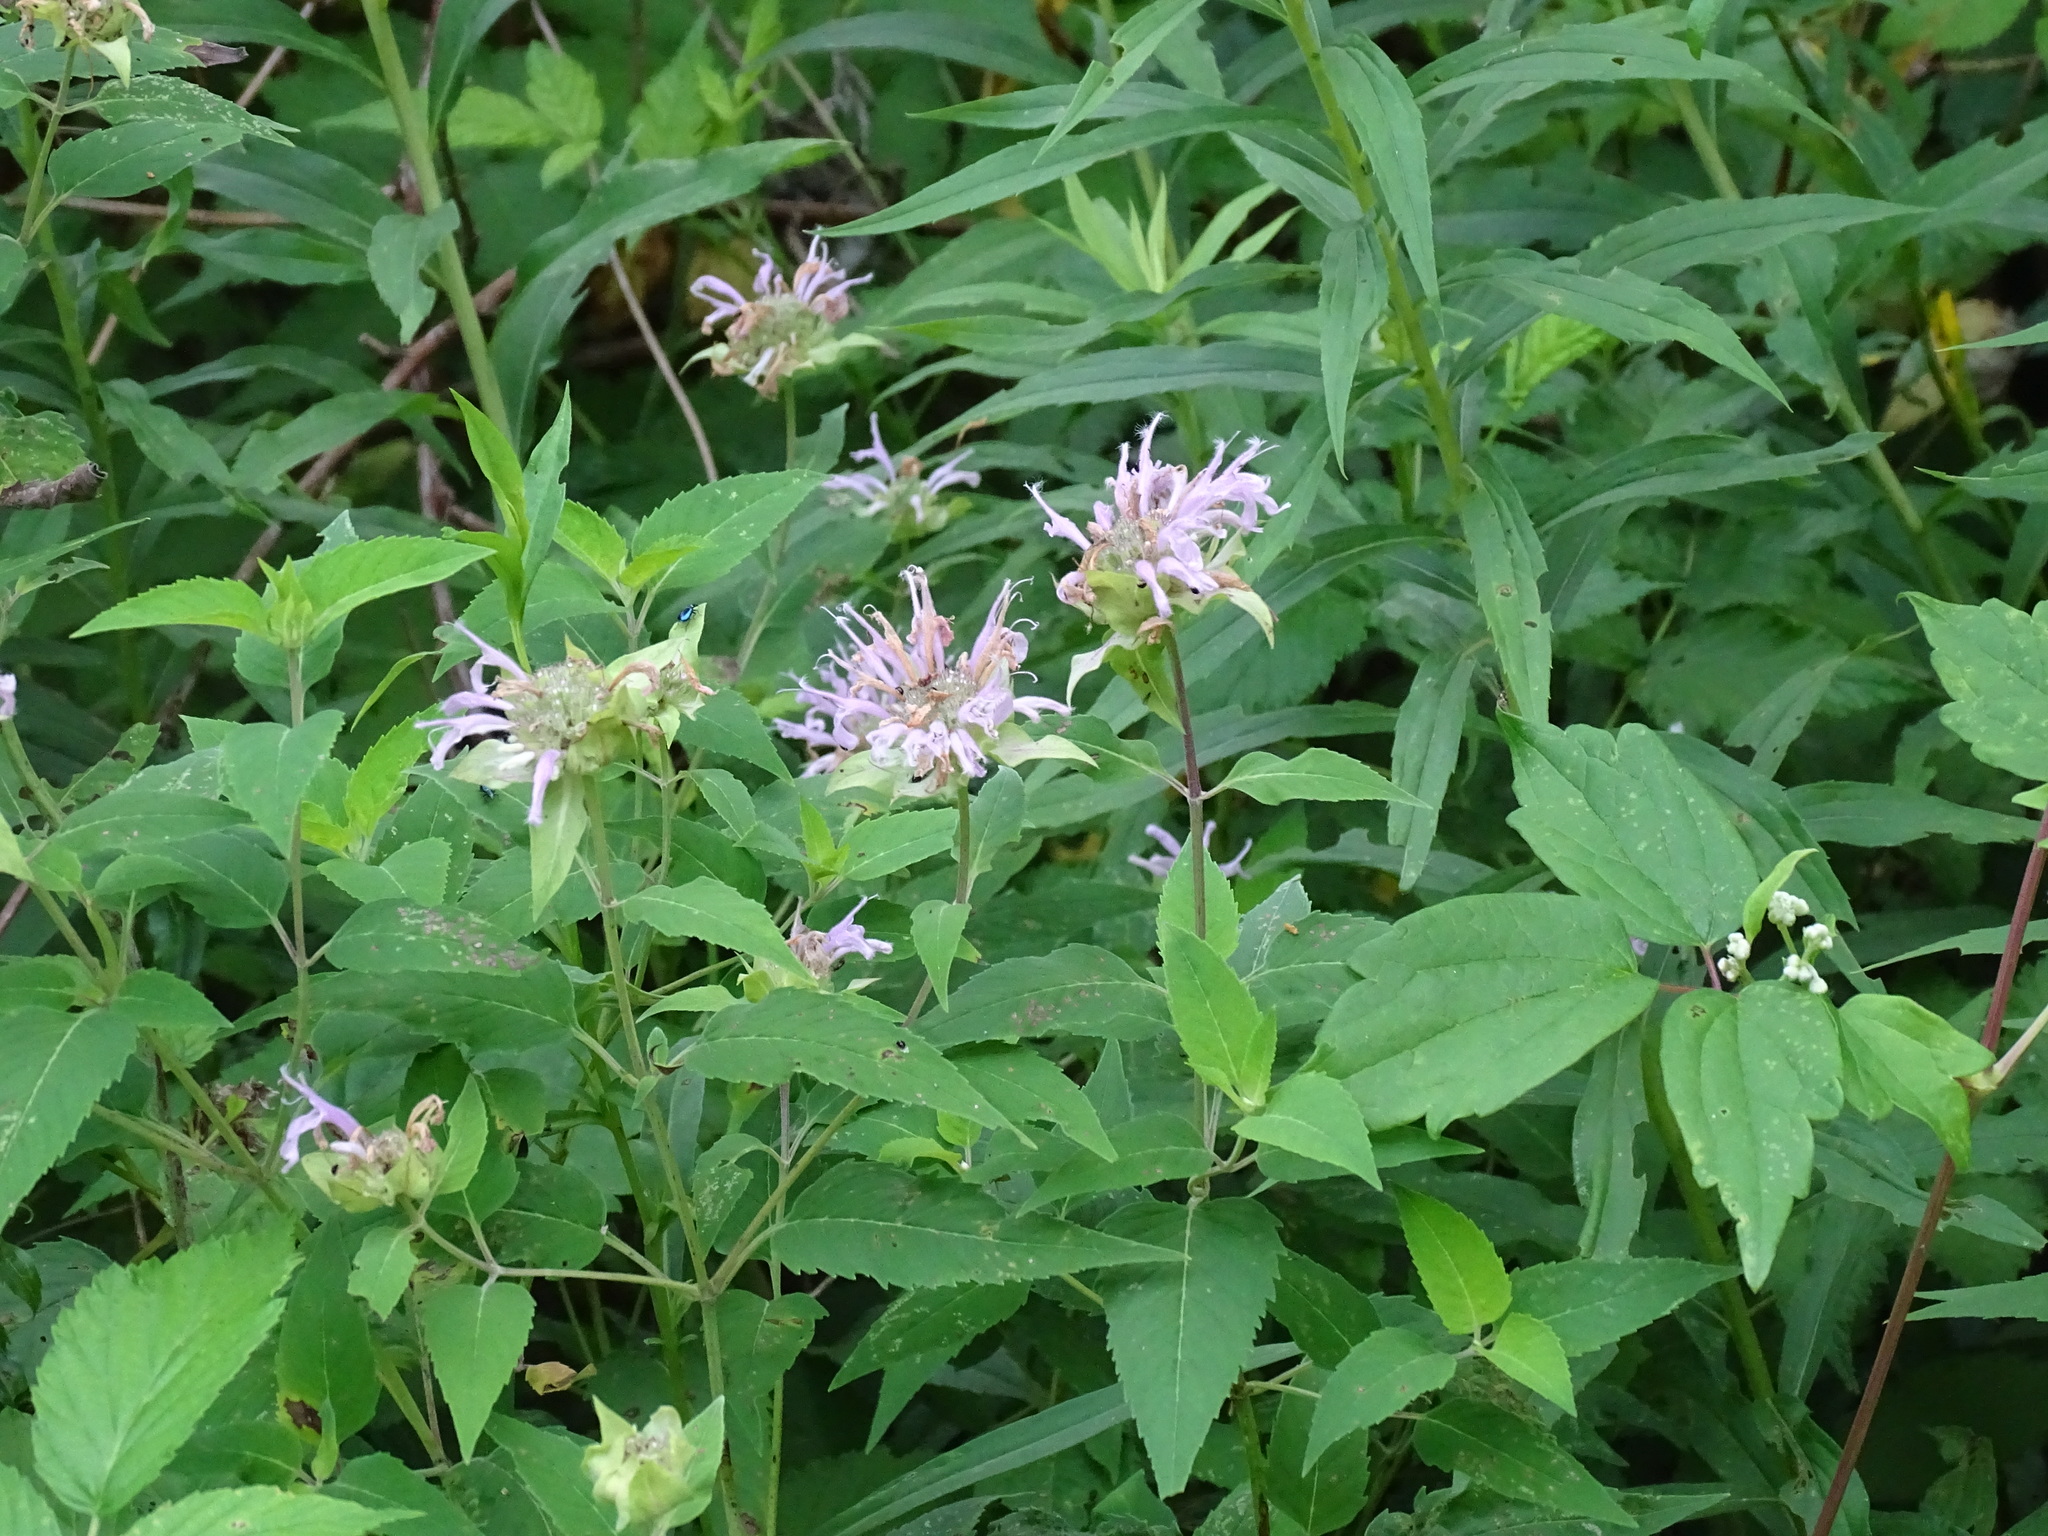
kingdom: Plantae
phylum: Tracheophyta
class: Magnoliopsida
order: Lamiales
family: Lamiaceae
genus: Monarda
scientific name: Monarda fistulosa
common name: Purple beebalm
